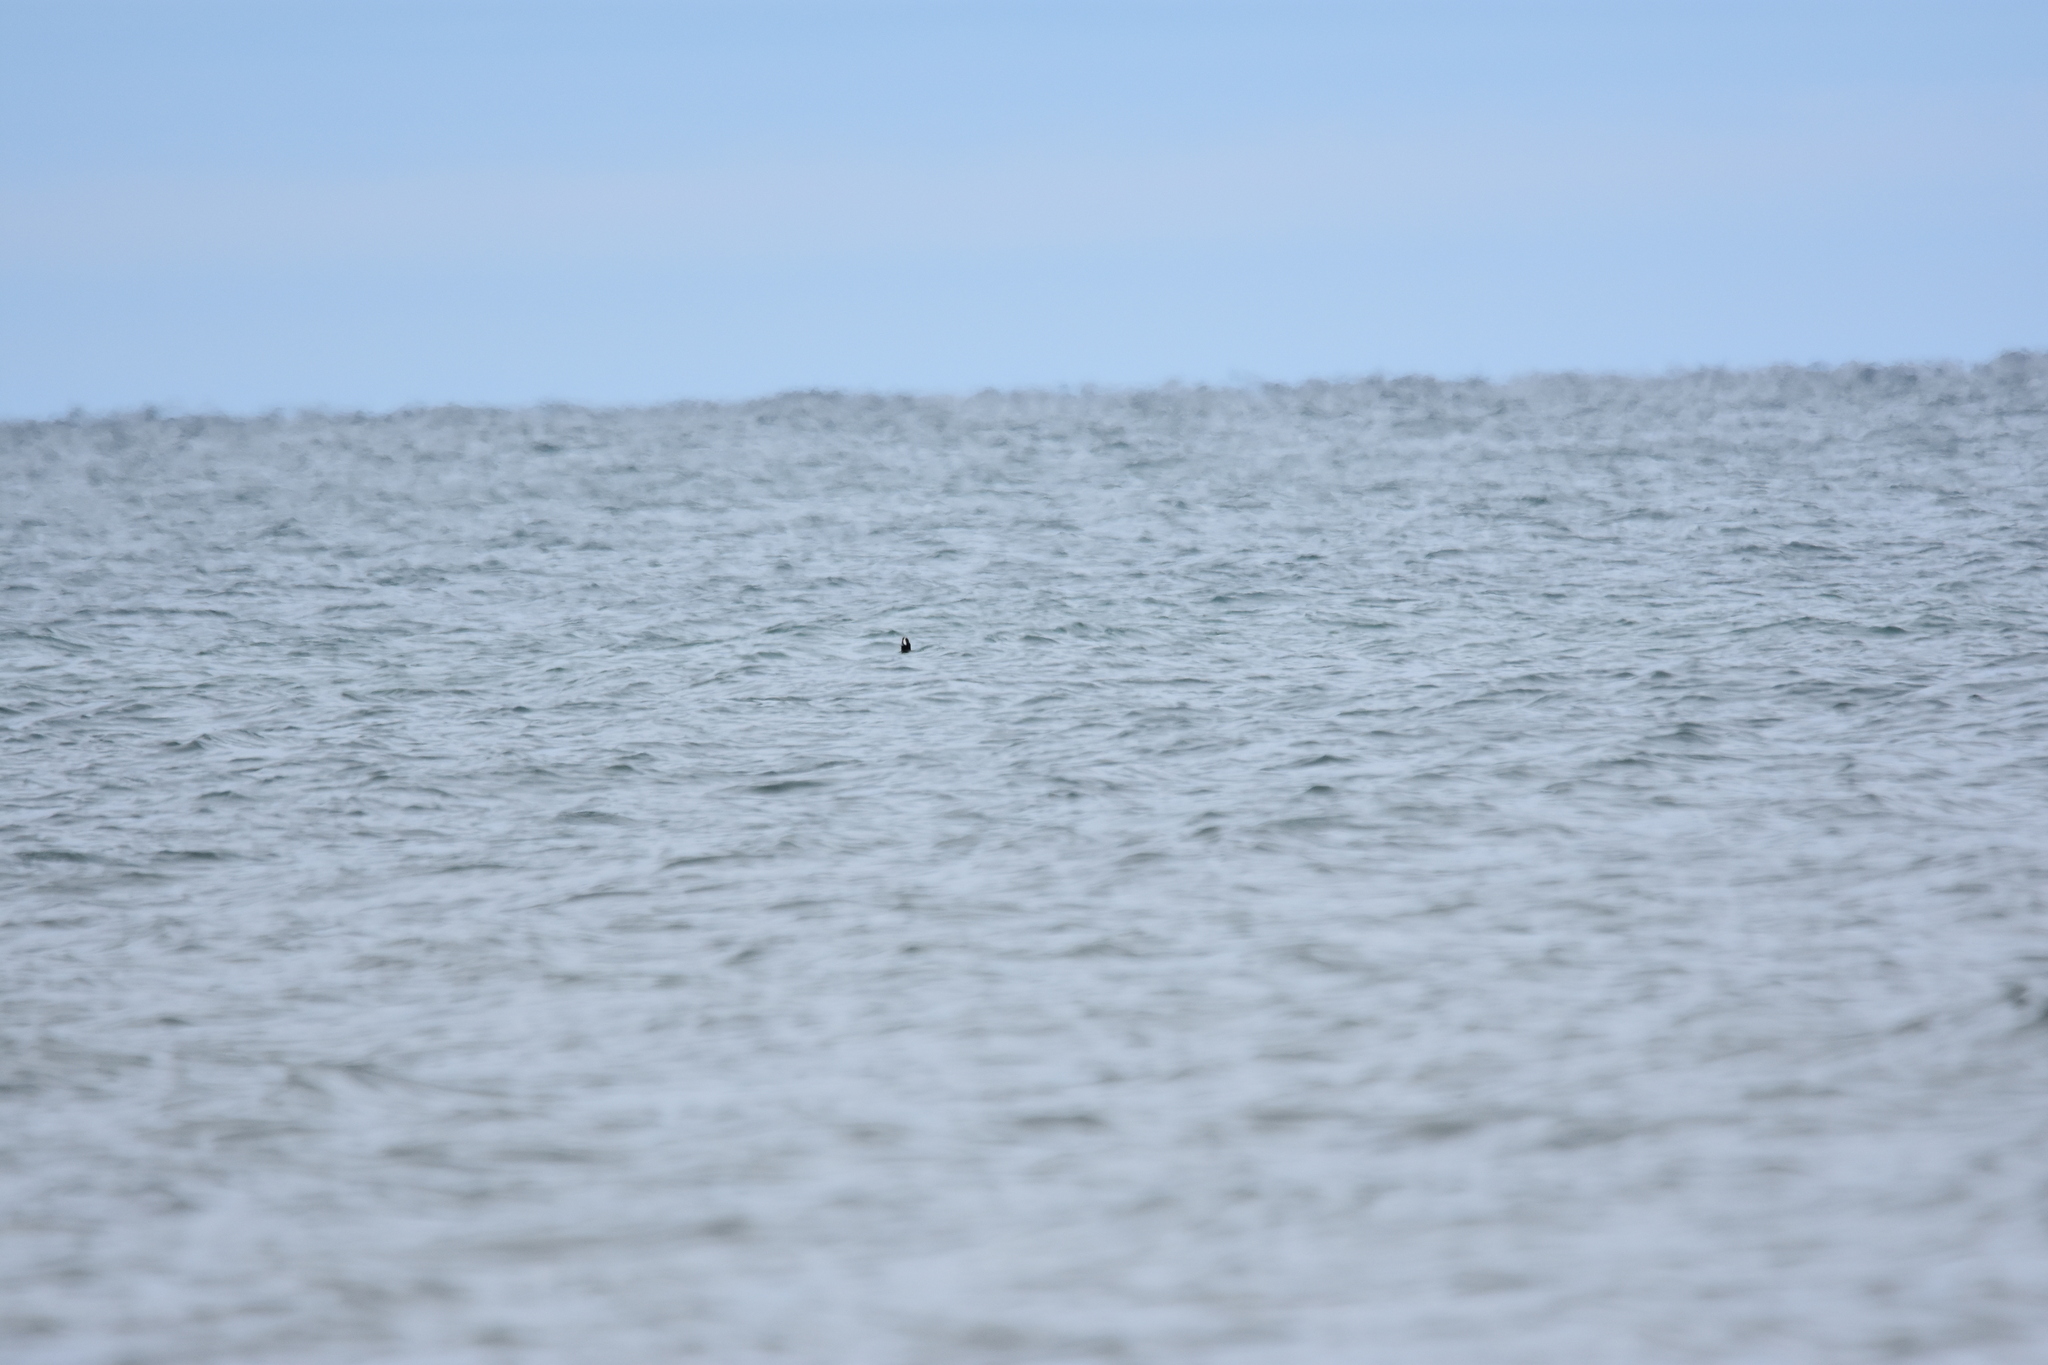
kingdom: Animalia
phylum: Chordata
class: Aves
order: Anseriformes
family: Anatidae
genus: Histrionicus
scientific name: Histrionicus histrionicus
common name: Harlequin duck
